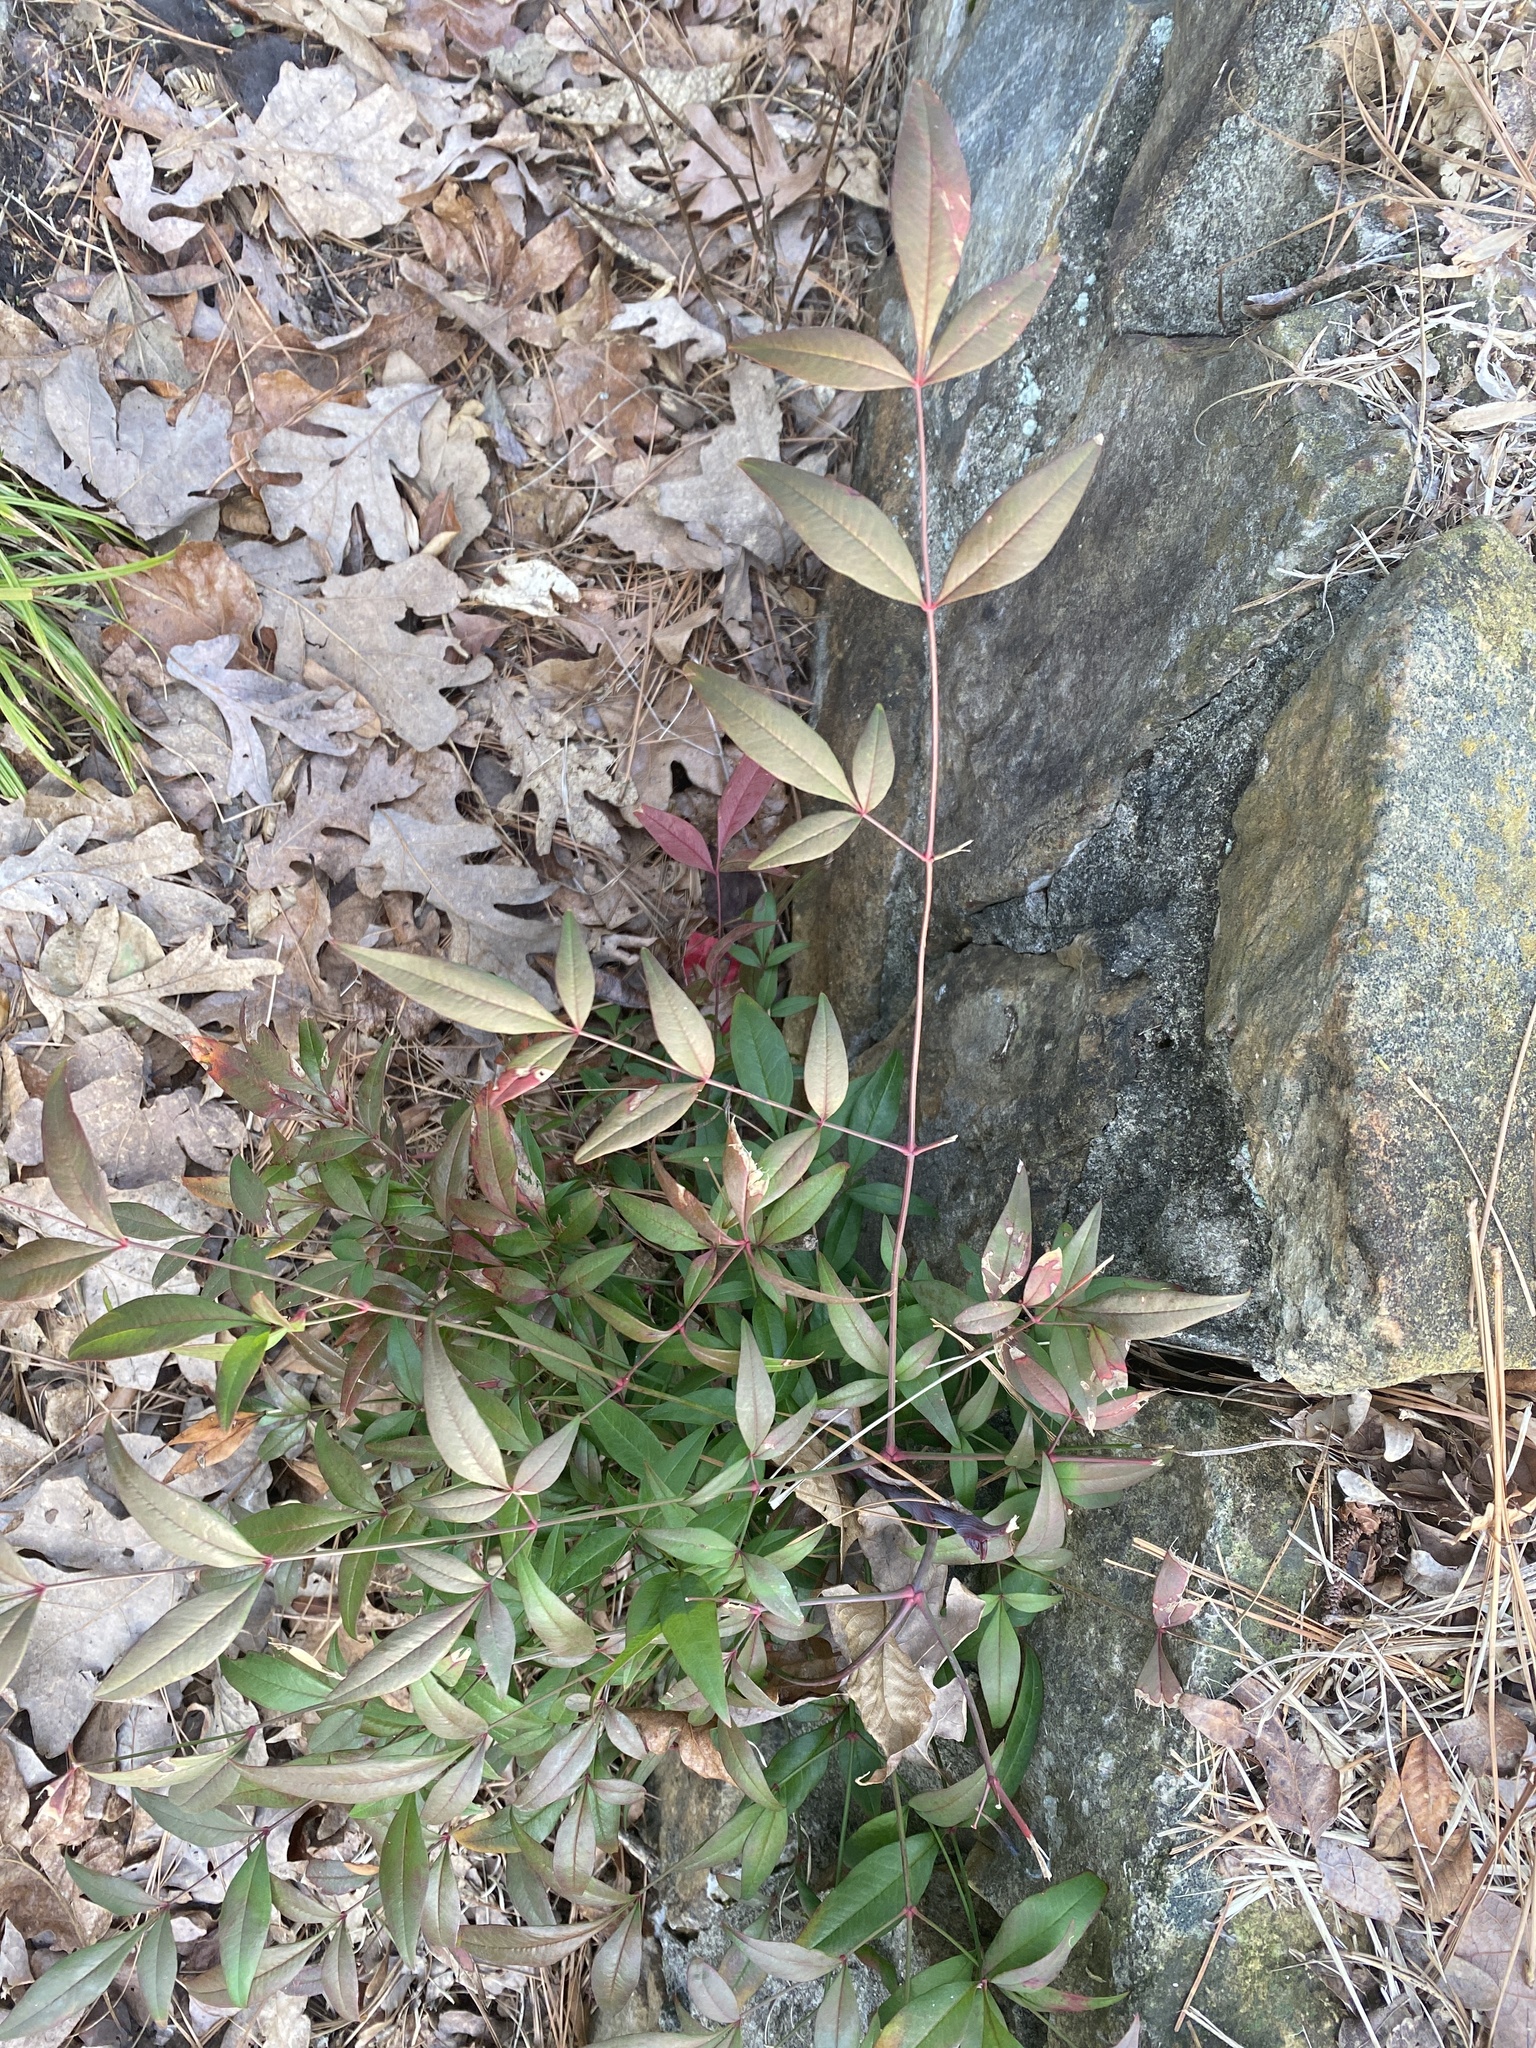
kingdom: Plantae
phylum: Tracheophyta
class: Magnoliopsida
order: Ranunculales
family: Berberidaceae
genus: Nandina
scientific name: Nandina domestica
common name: Sacred bamboo
